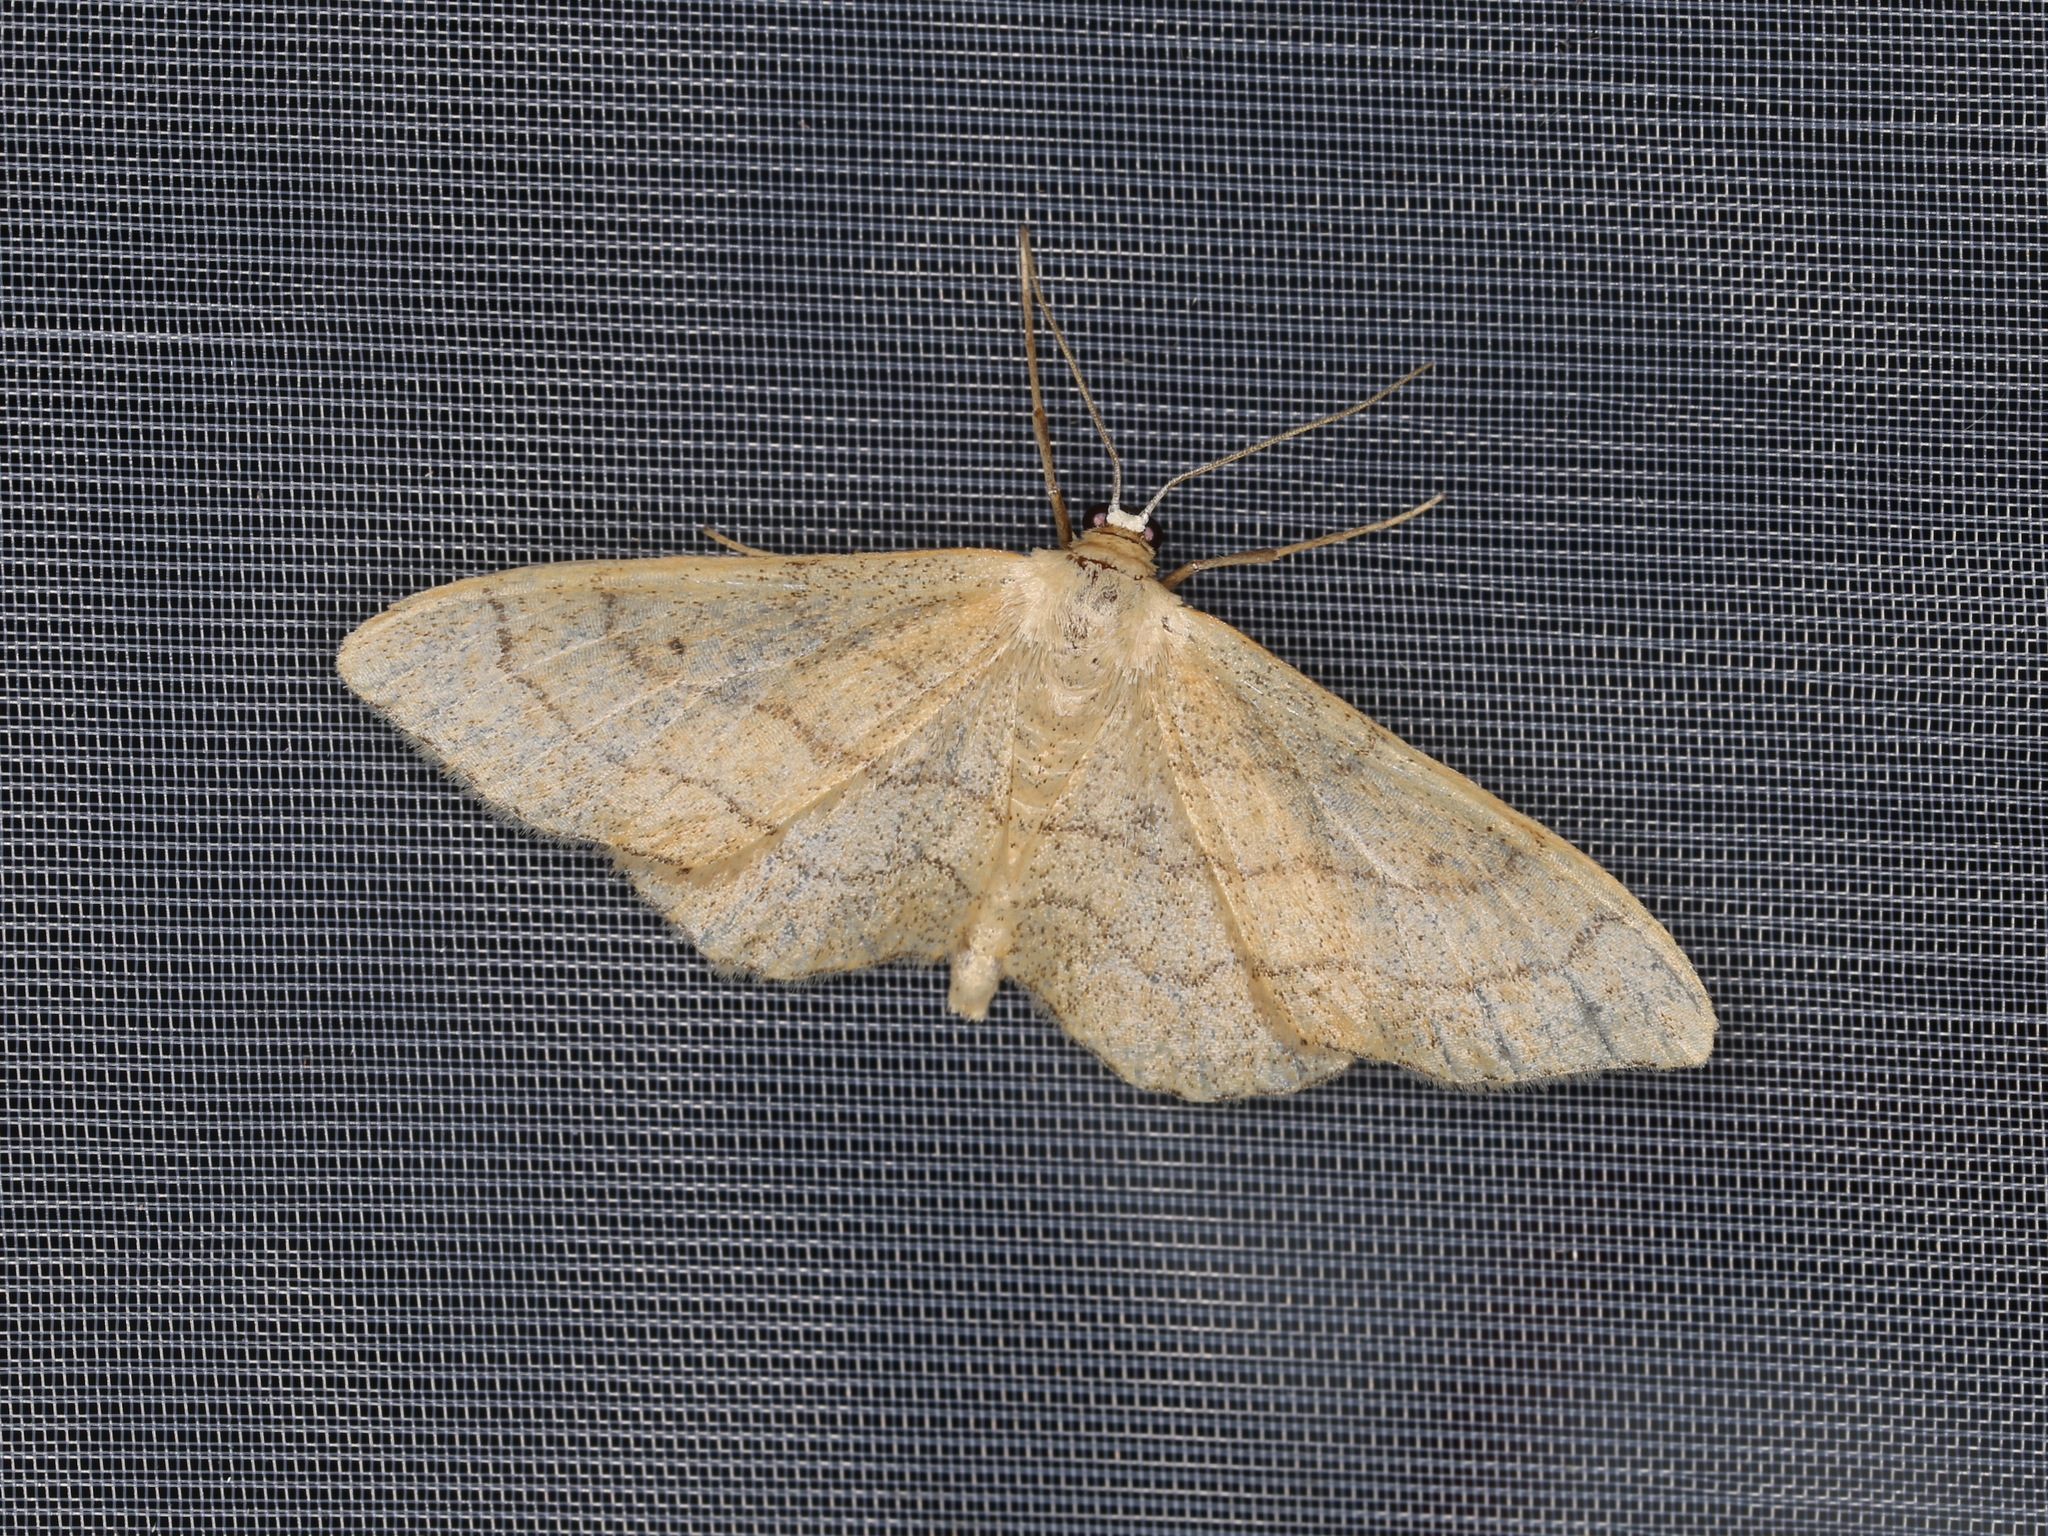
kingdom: Animalia
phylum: Arthropoda
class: Insecta
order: Lepidoptera
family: Geometridae
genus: Idaea
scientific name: Idaea aversata
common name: Riband wave
